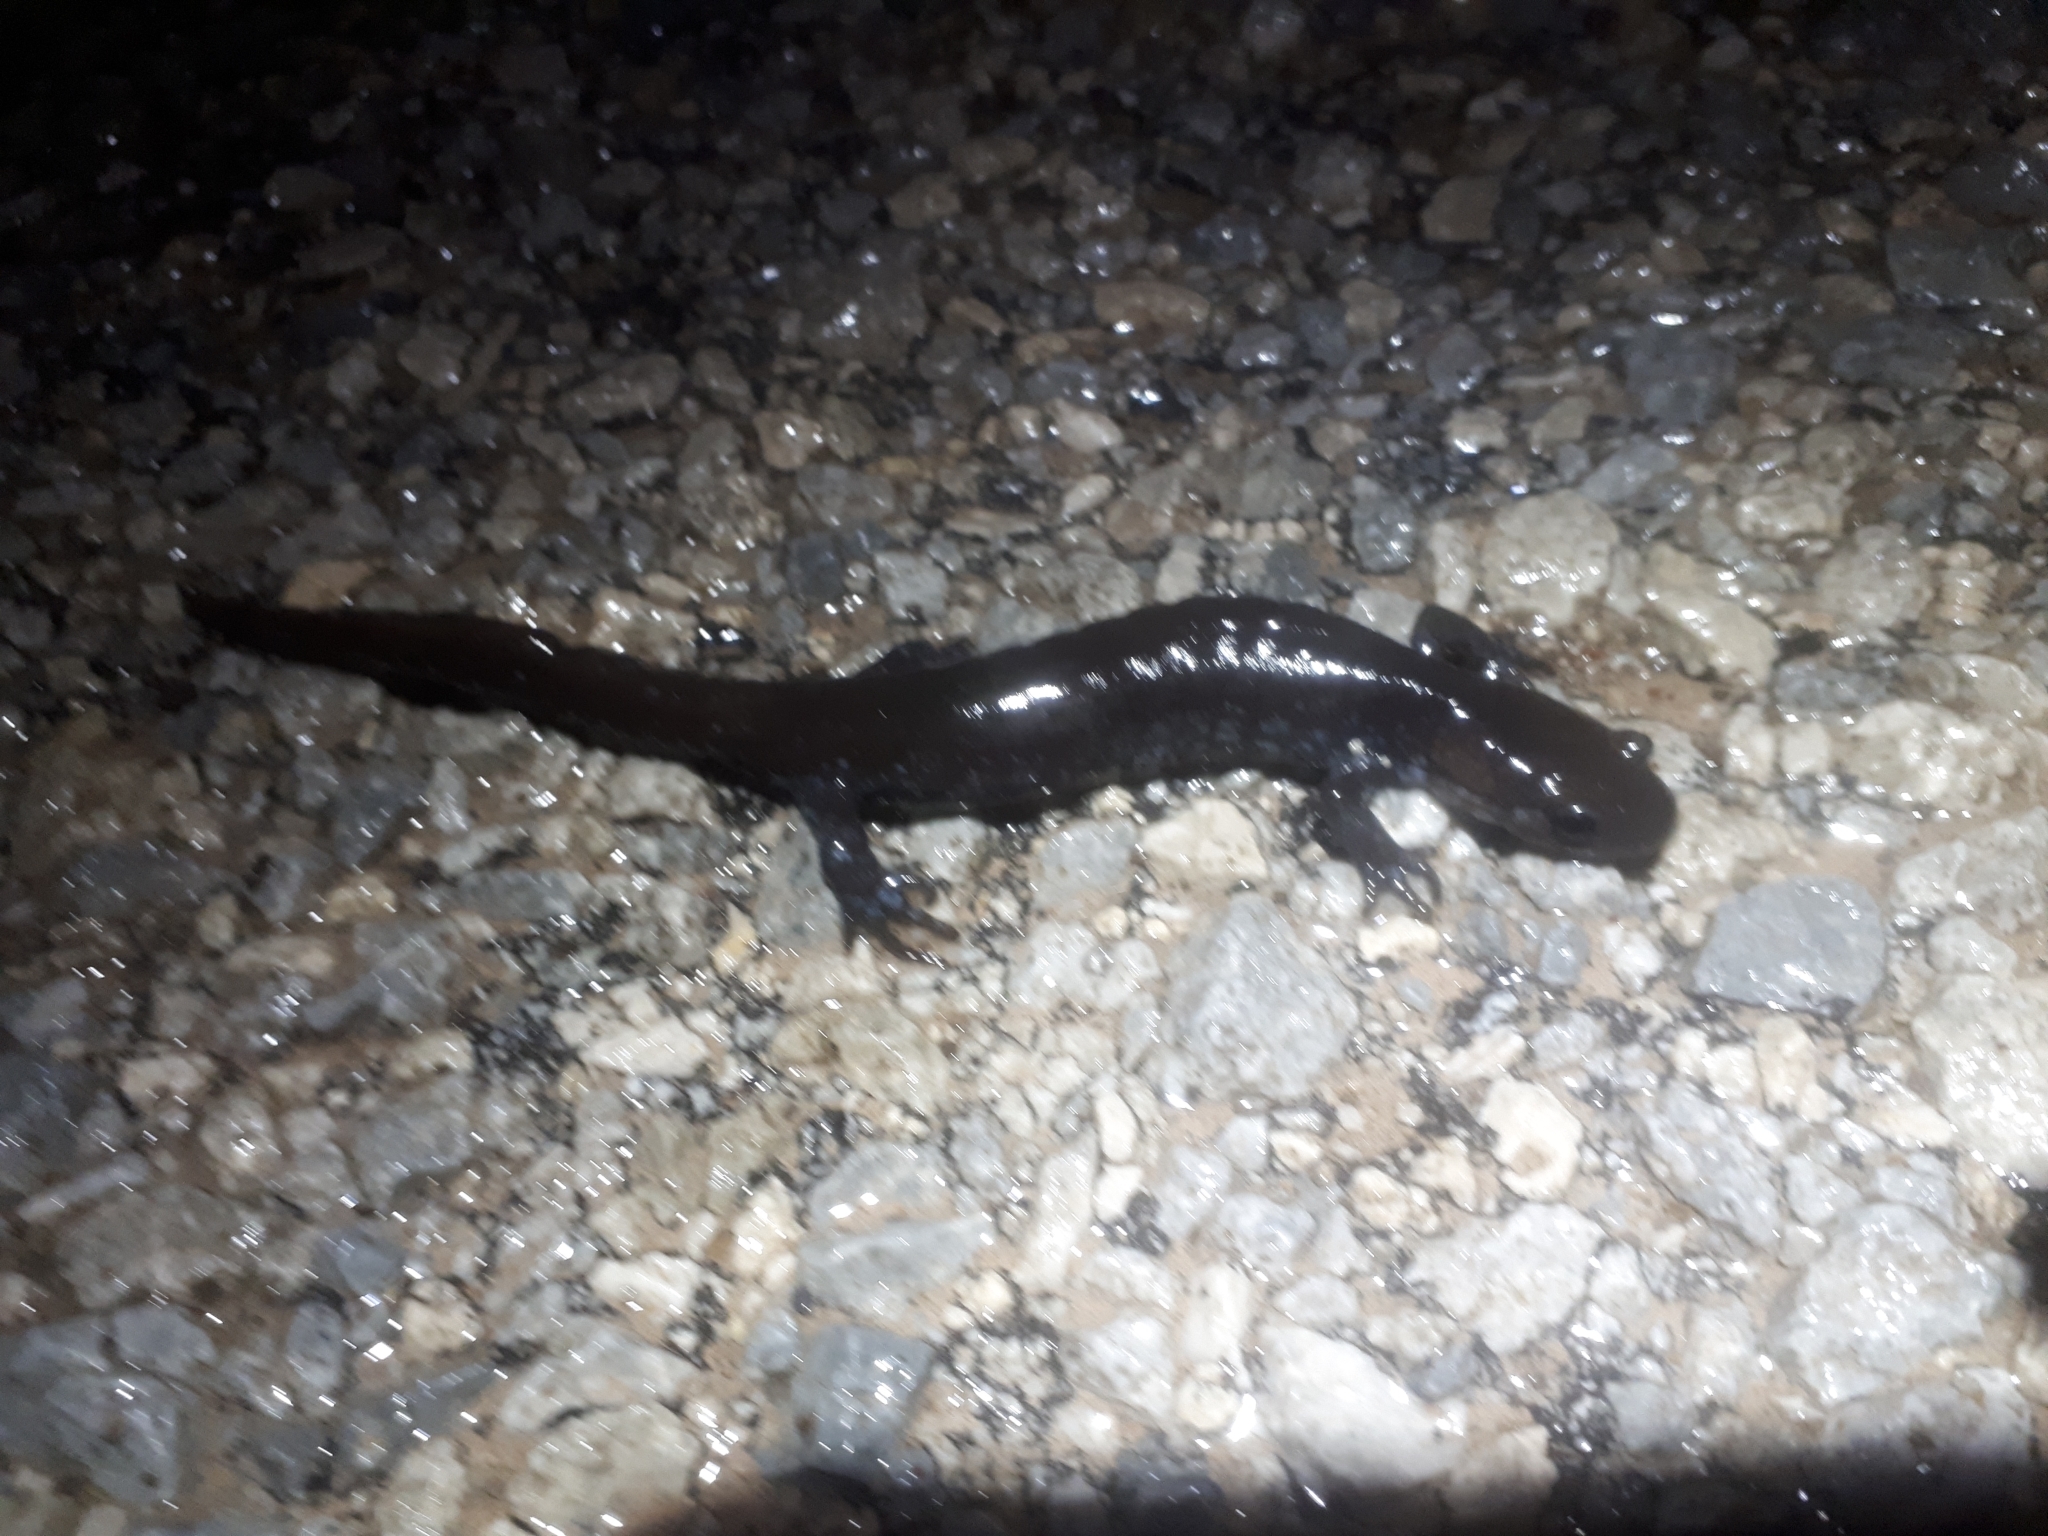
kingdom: Animalia
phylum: Chordata
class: Amphibia
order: Caudata
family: Ambystomatidae
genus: Ambystoma
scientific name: Ambystoma unisexual
